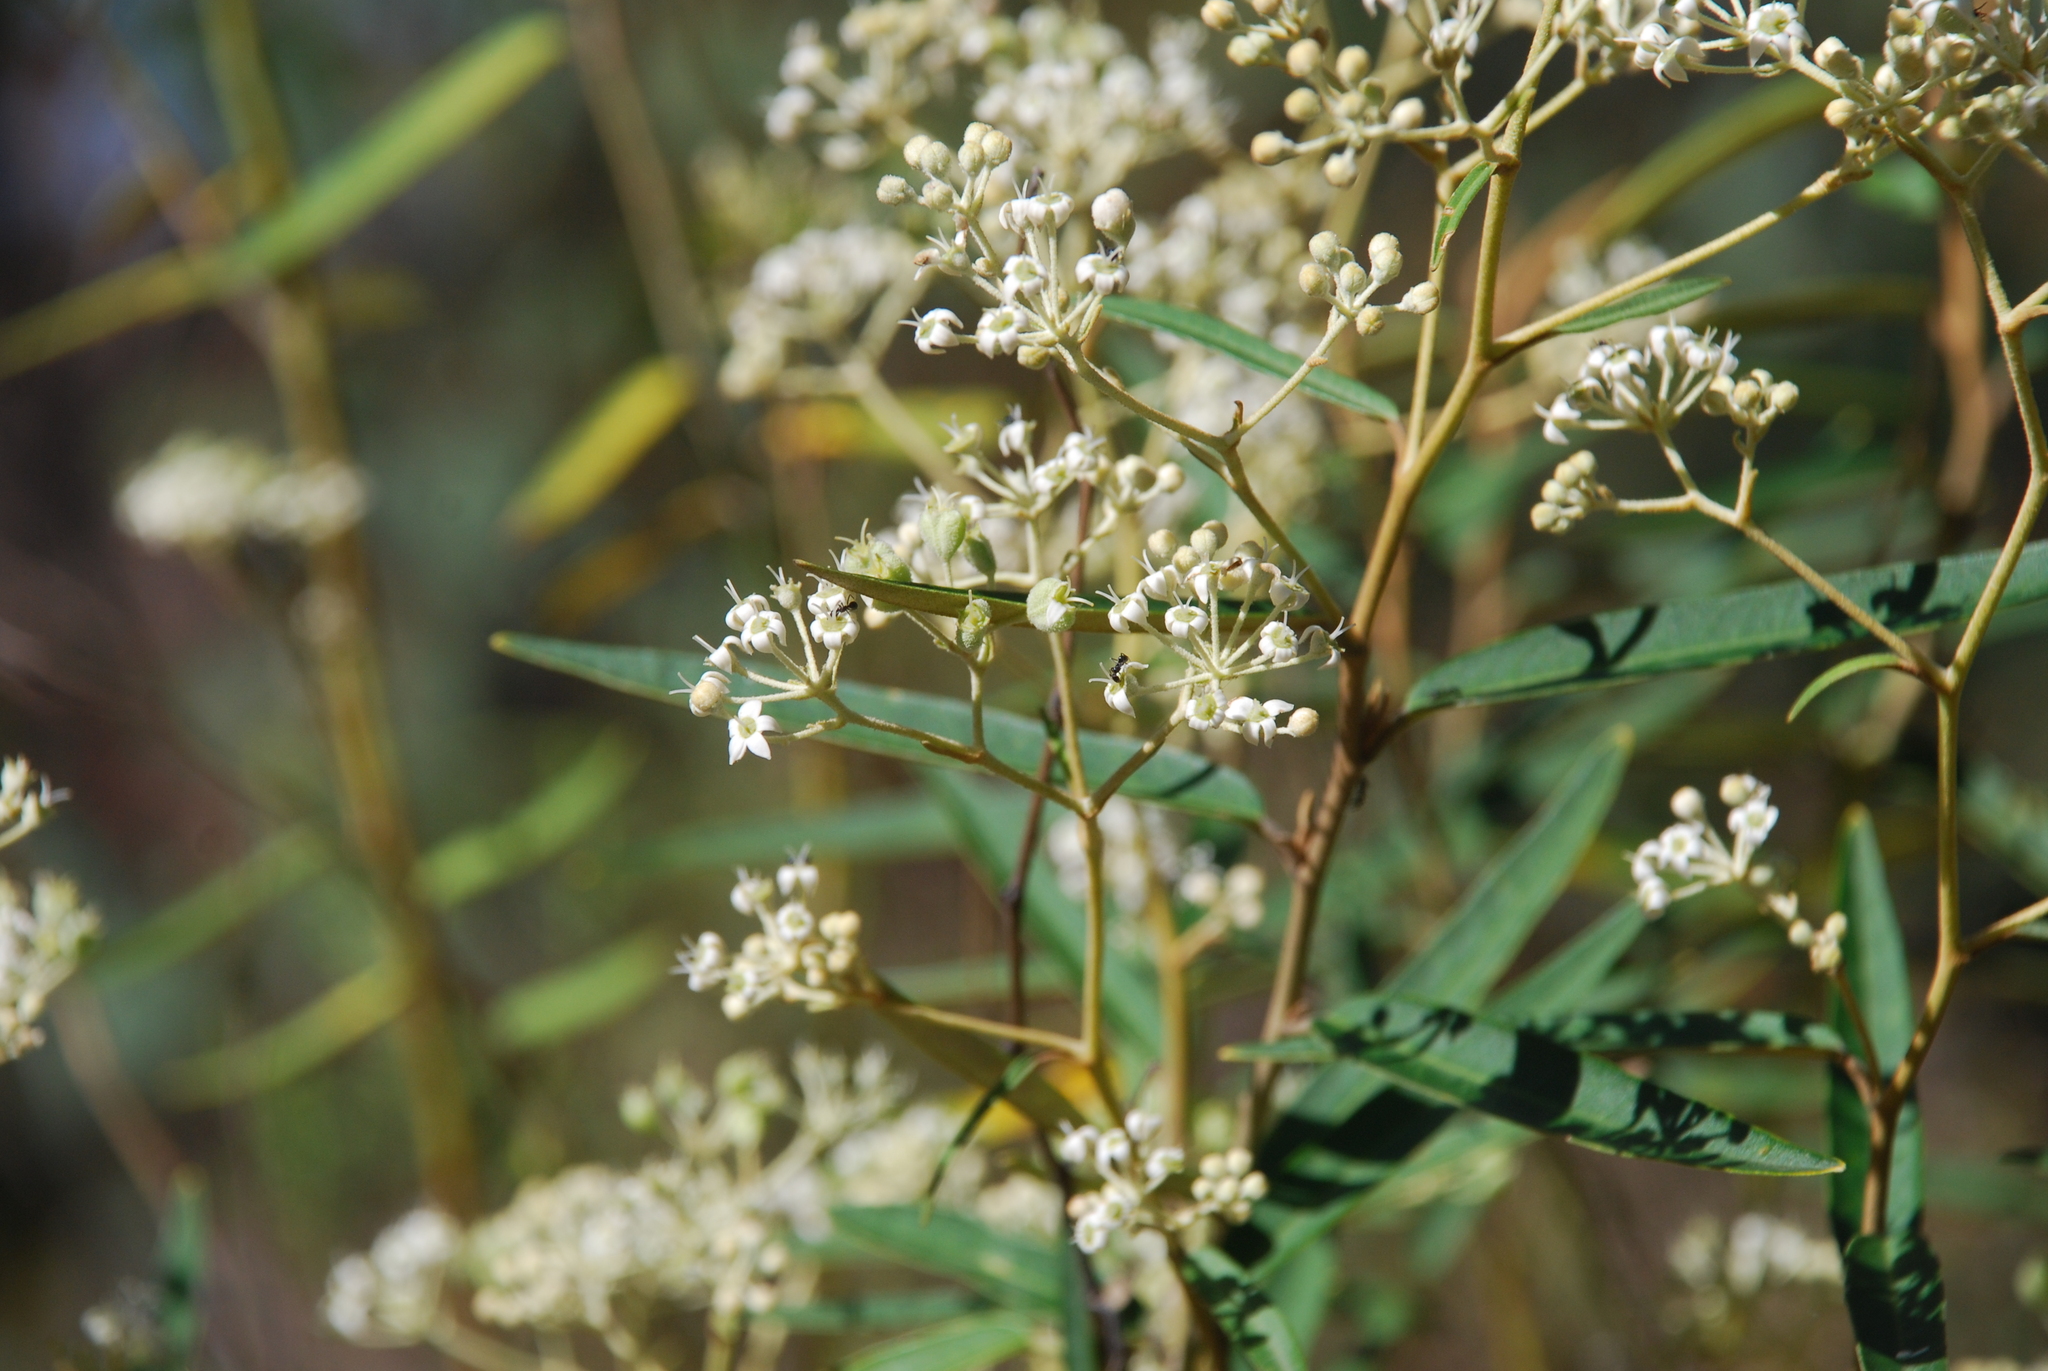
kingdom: Plantae
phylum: Tracheophyta
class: Magnoliopsida
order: Apiales
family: Araliaceae
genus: Astrotricha
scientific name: Astrotricha longifolia
